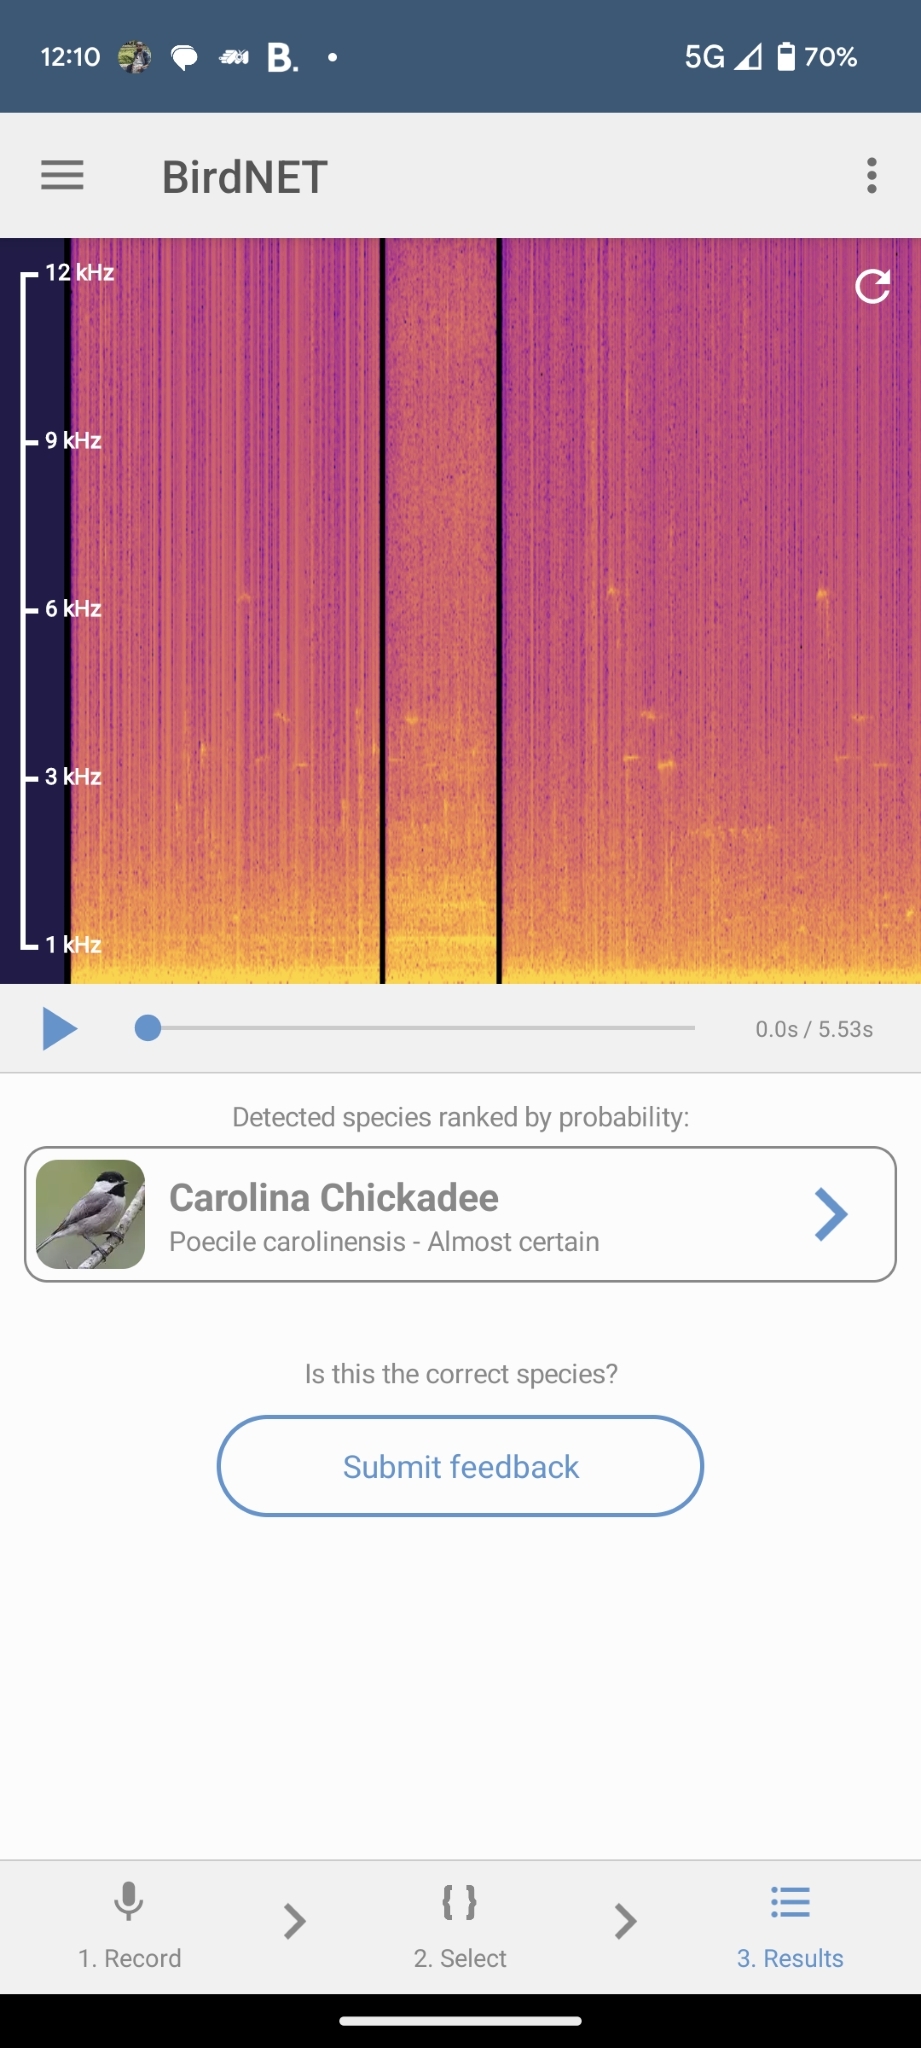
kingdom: Animalia
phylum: Chordata
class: Aves
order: Passeriformes
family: Paridae
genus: Poecile
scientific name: Poecile carolinensis
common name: Carolina chickadee
